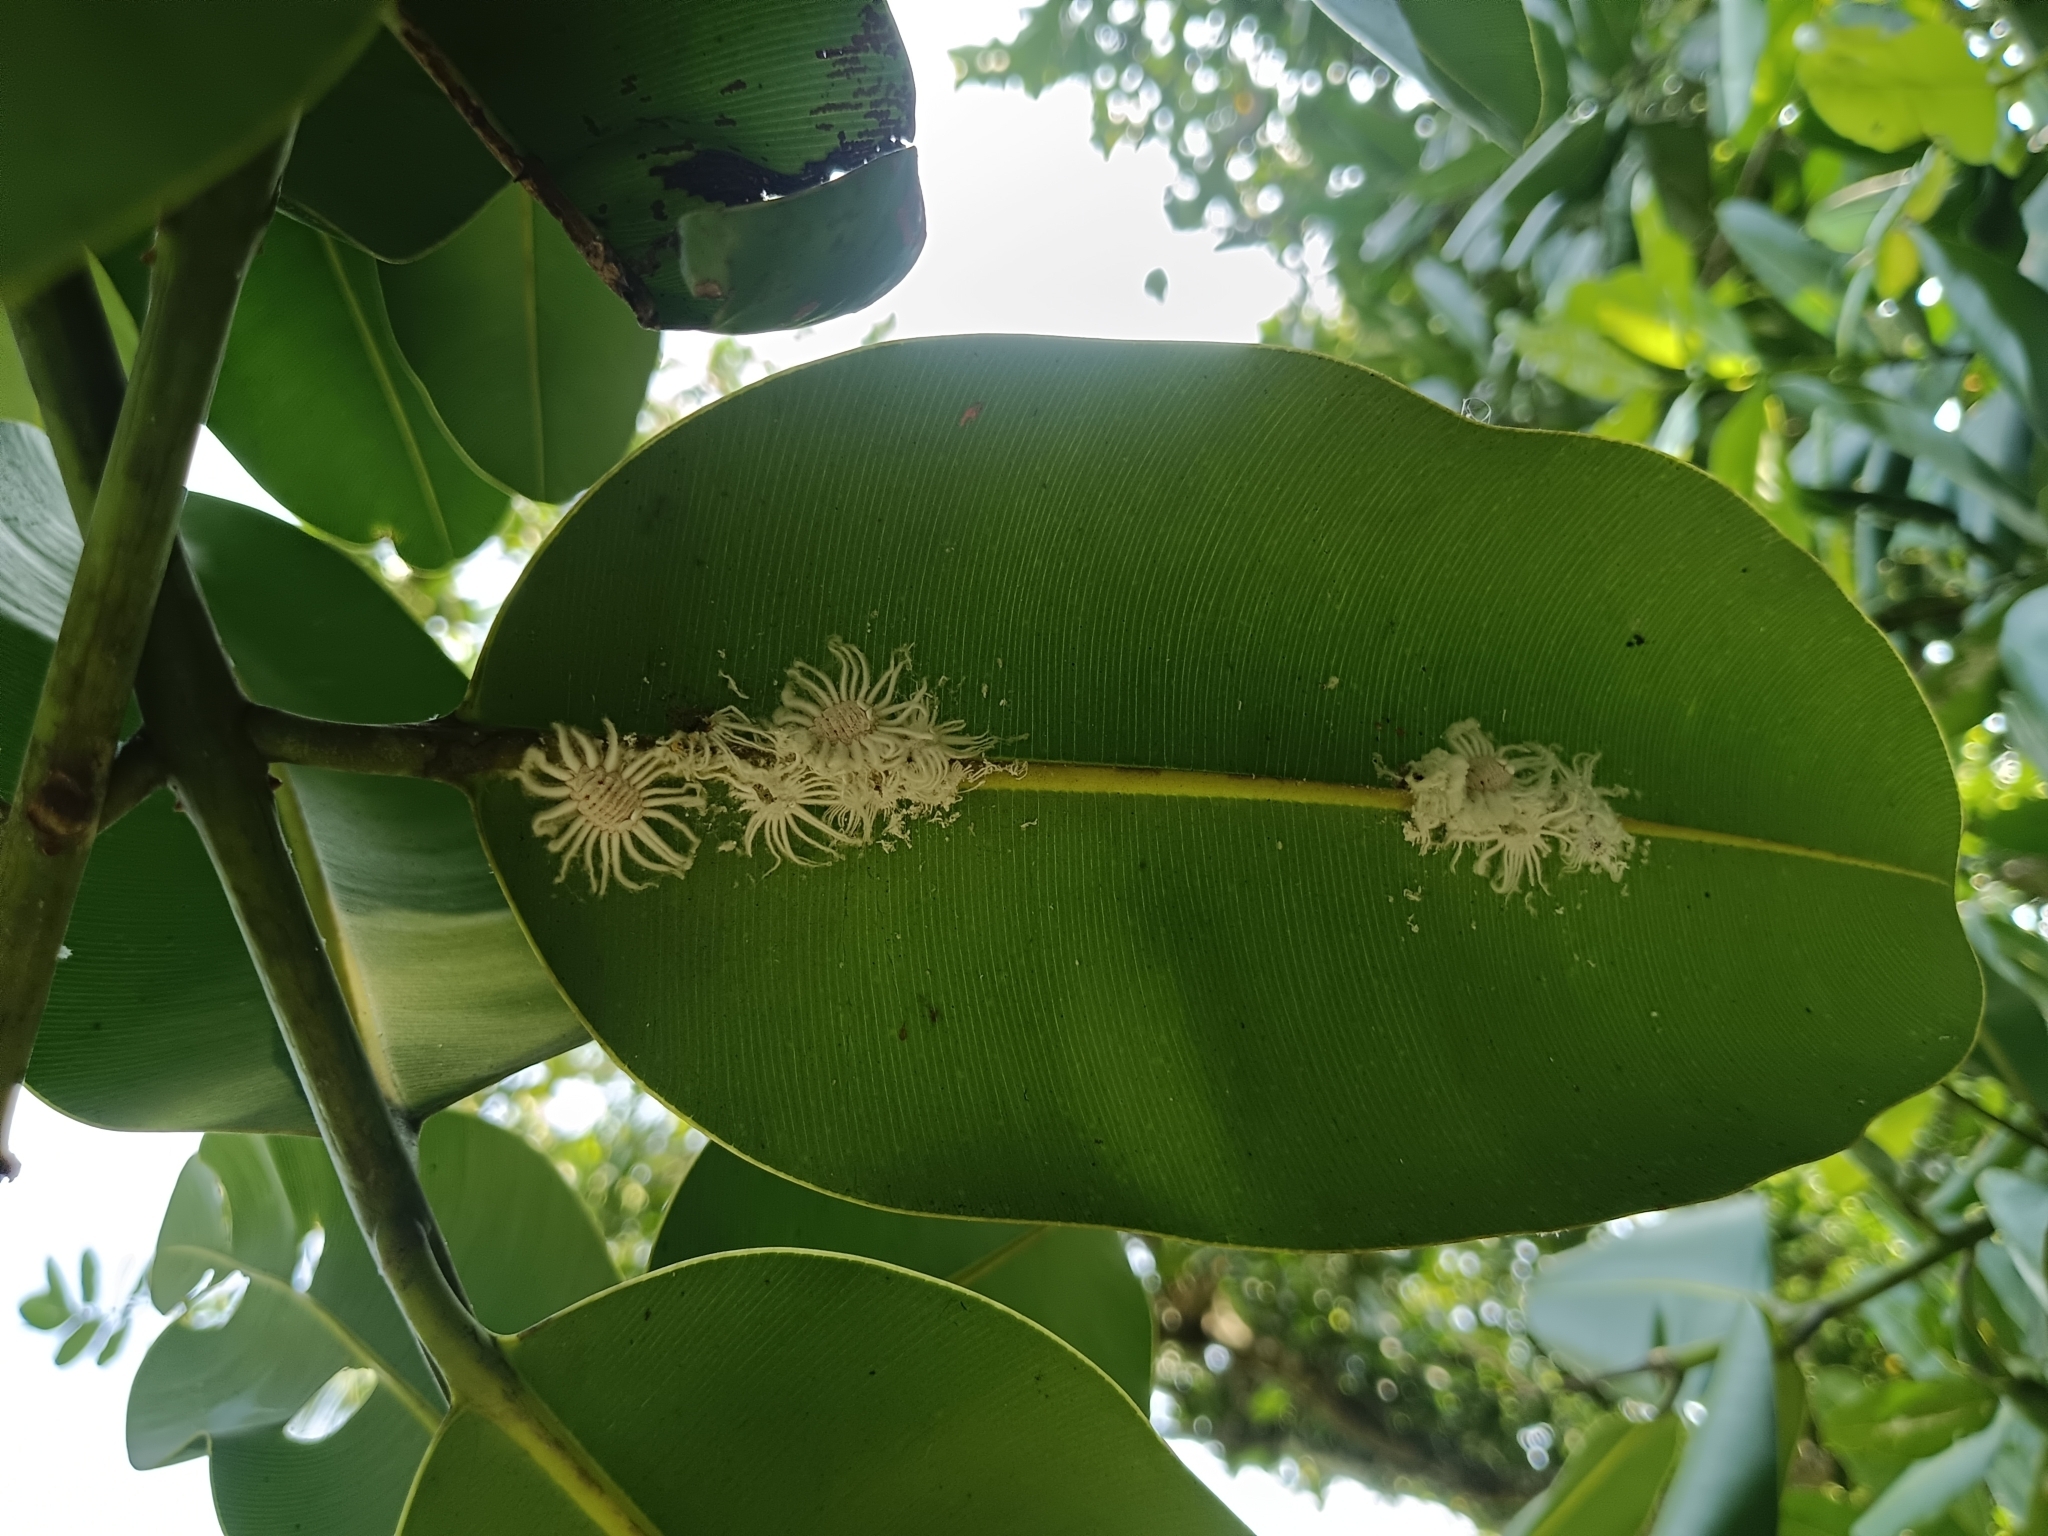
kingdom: Animalia
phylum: Arthropoda
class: Insecta
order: Hemiptera
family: Margarodidae
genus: Icerya
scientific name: Icerya aegyptiaca
